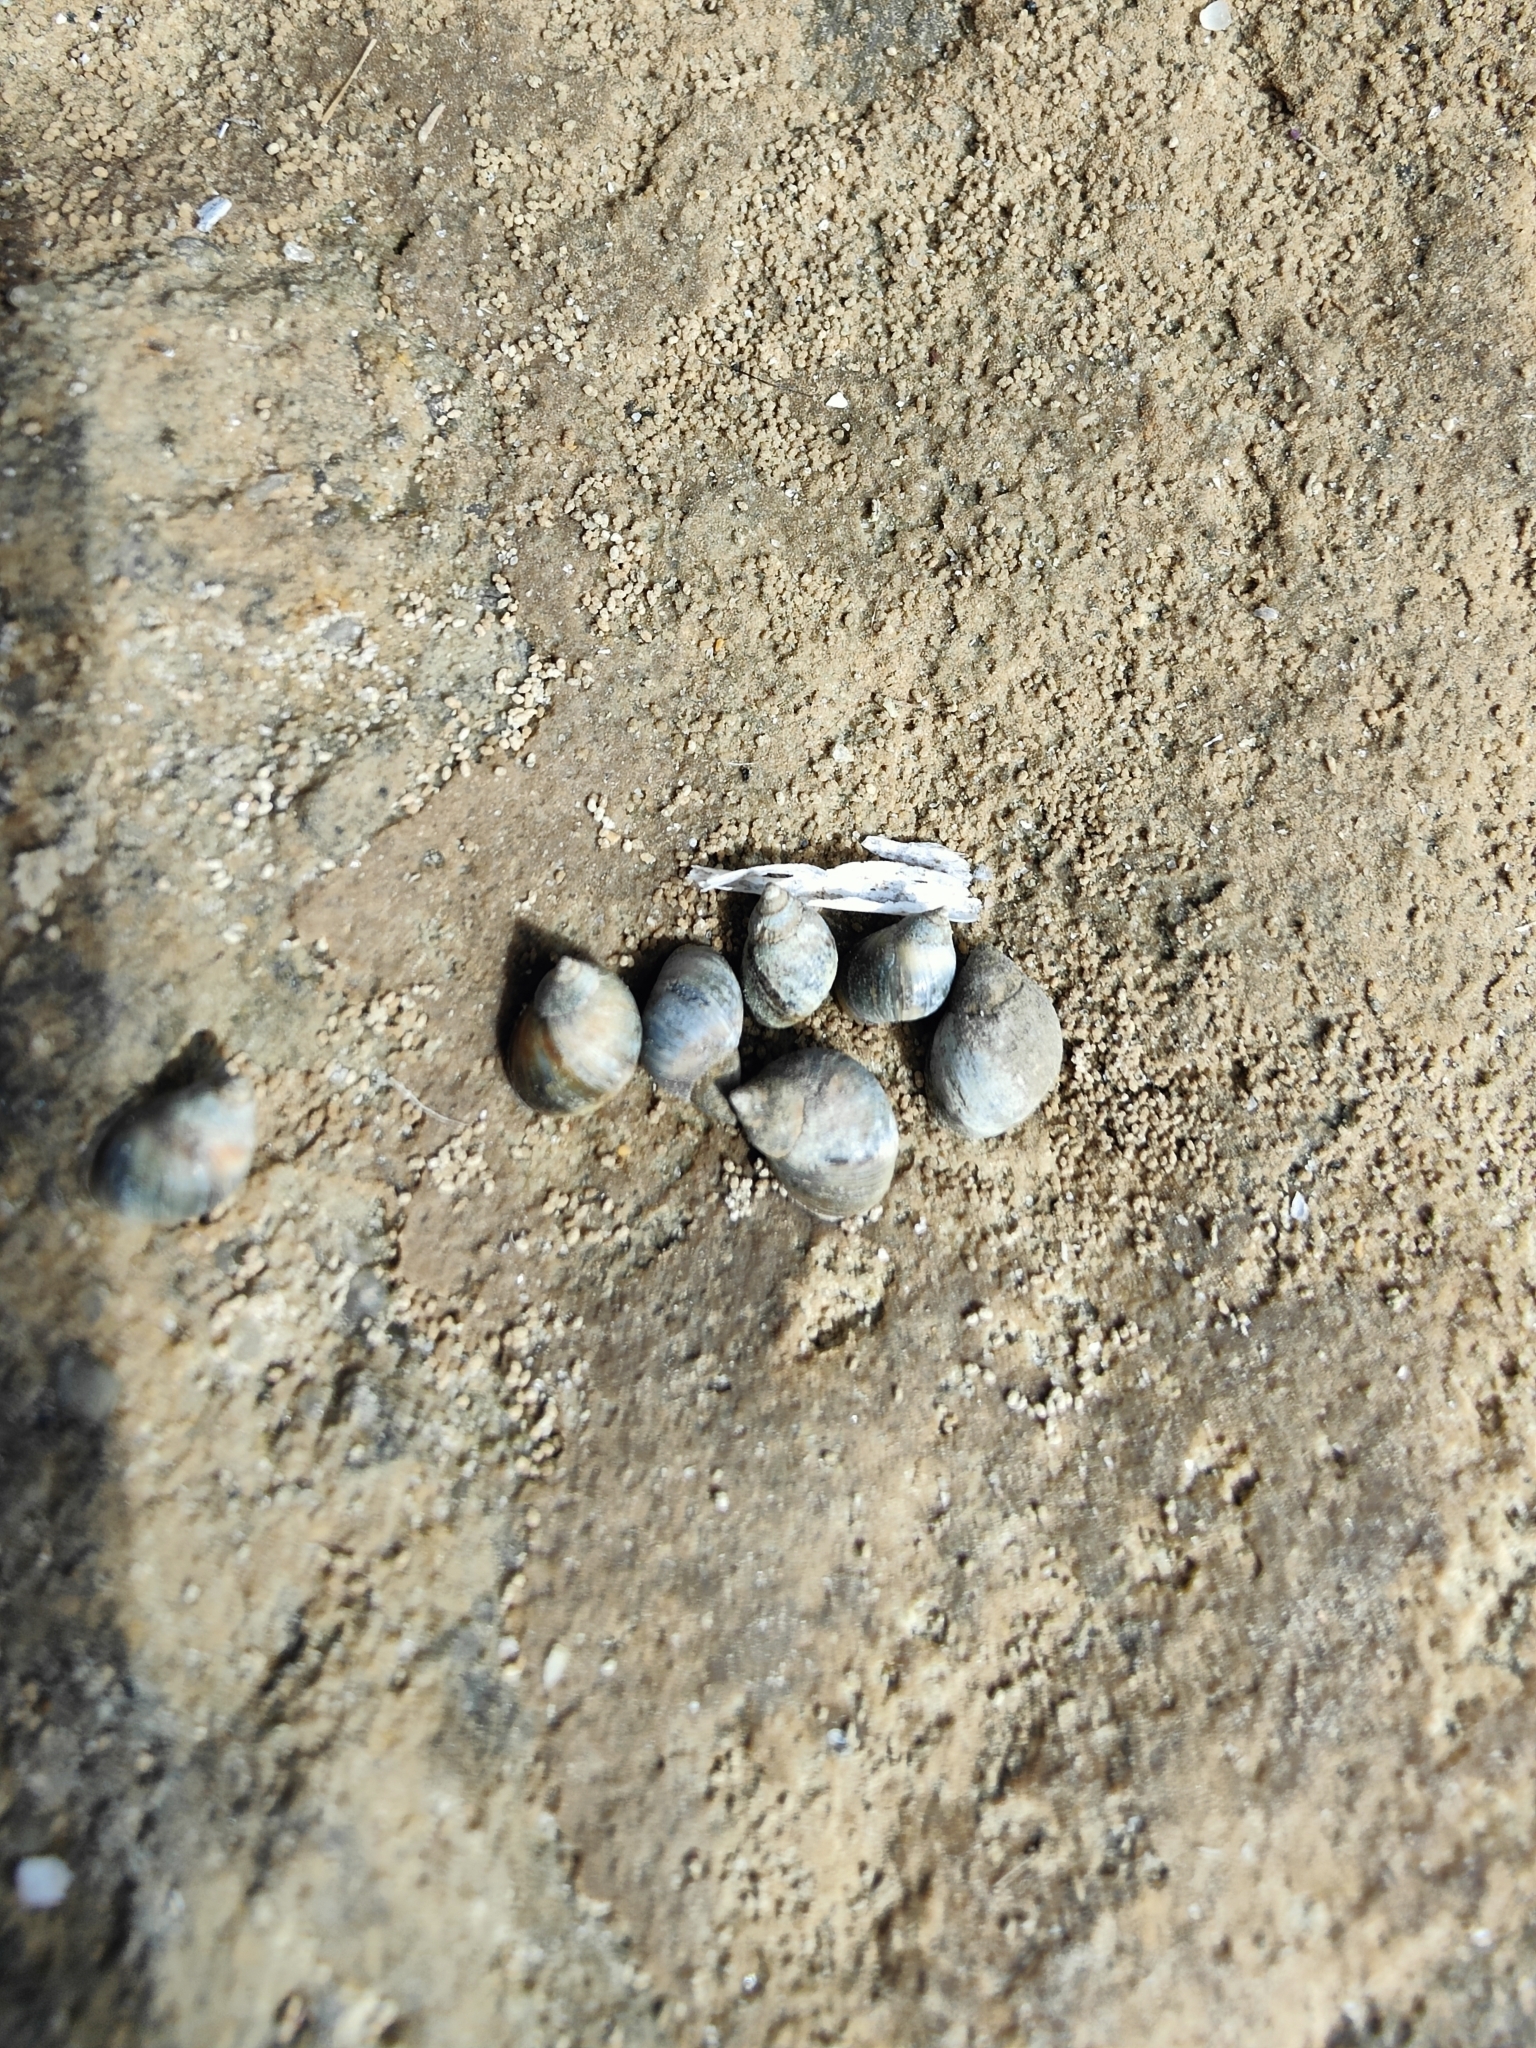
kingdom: Animalia
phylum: Mollusca
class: Gastropoda
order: Littorinimorpha
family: Littorinidae
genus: Melarhaphe
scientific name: Melarhaphe neritoides
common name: Small periwinkle
